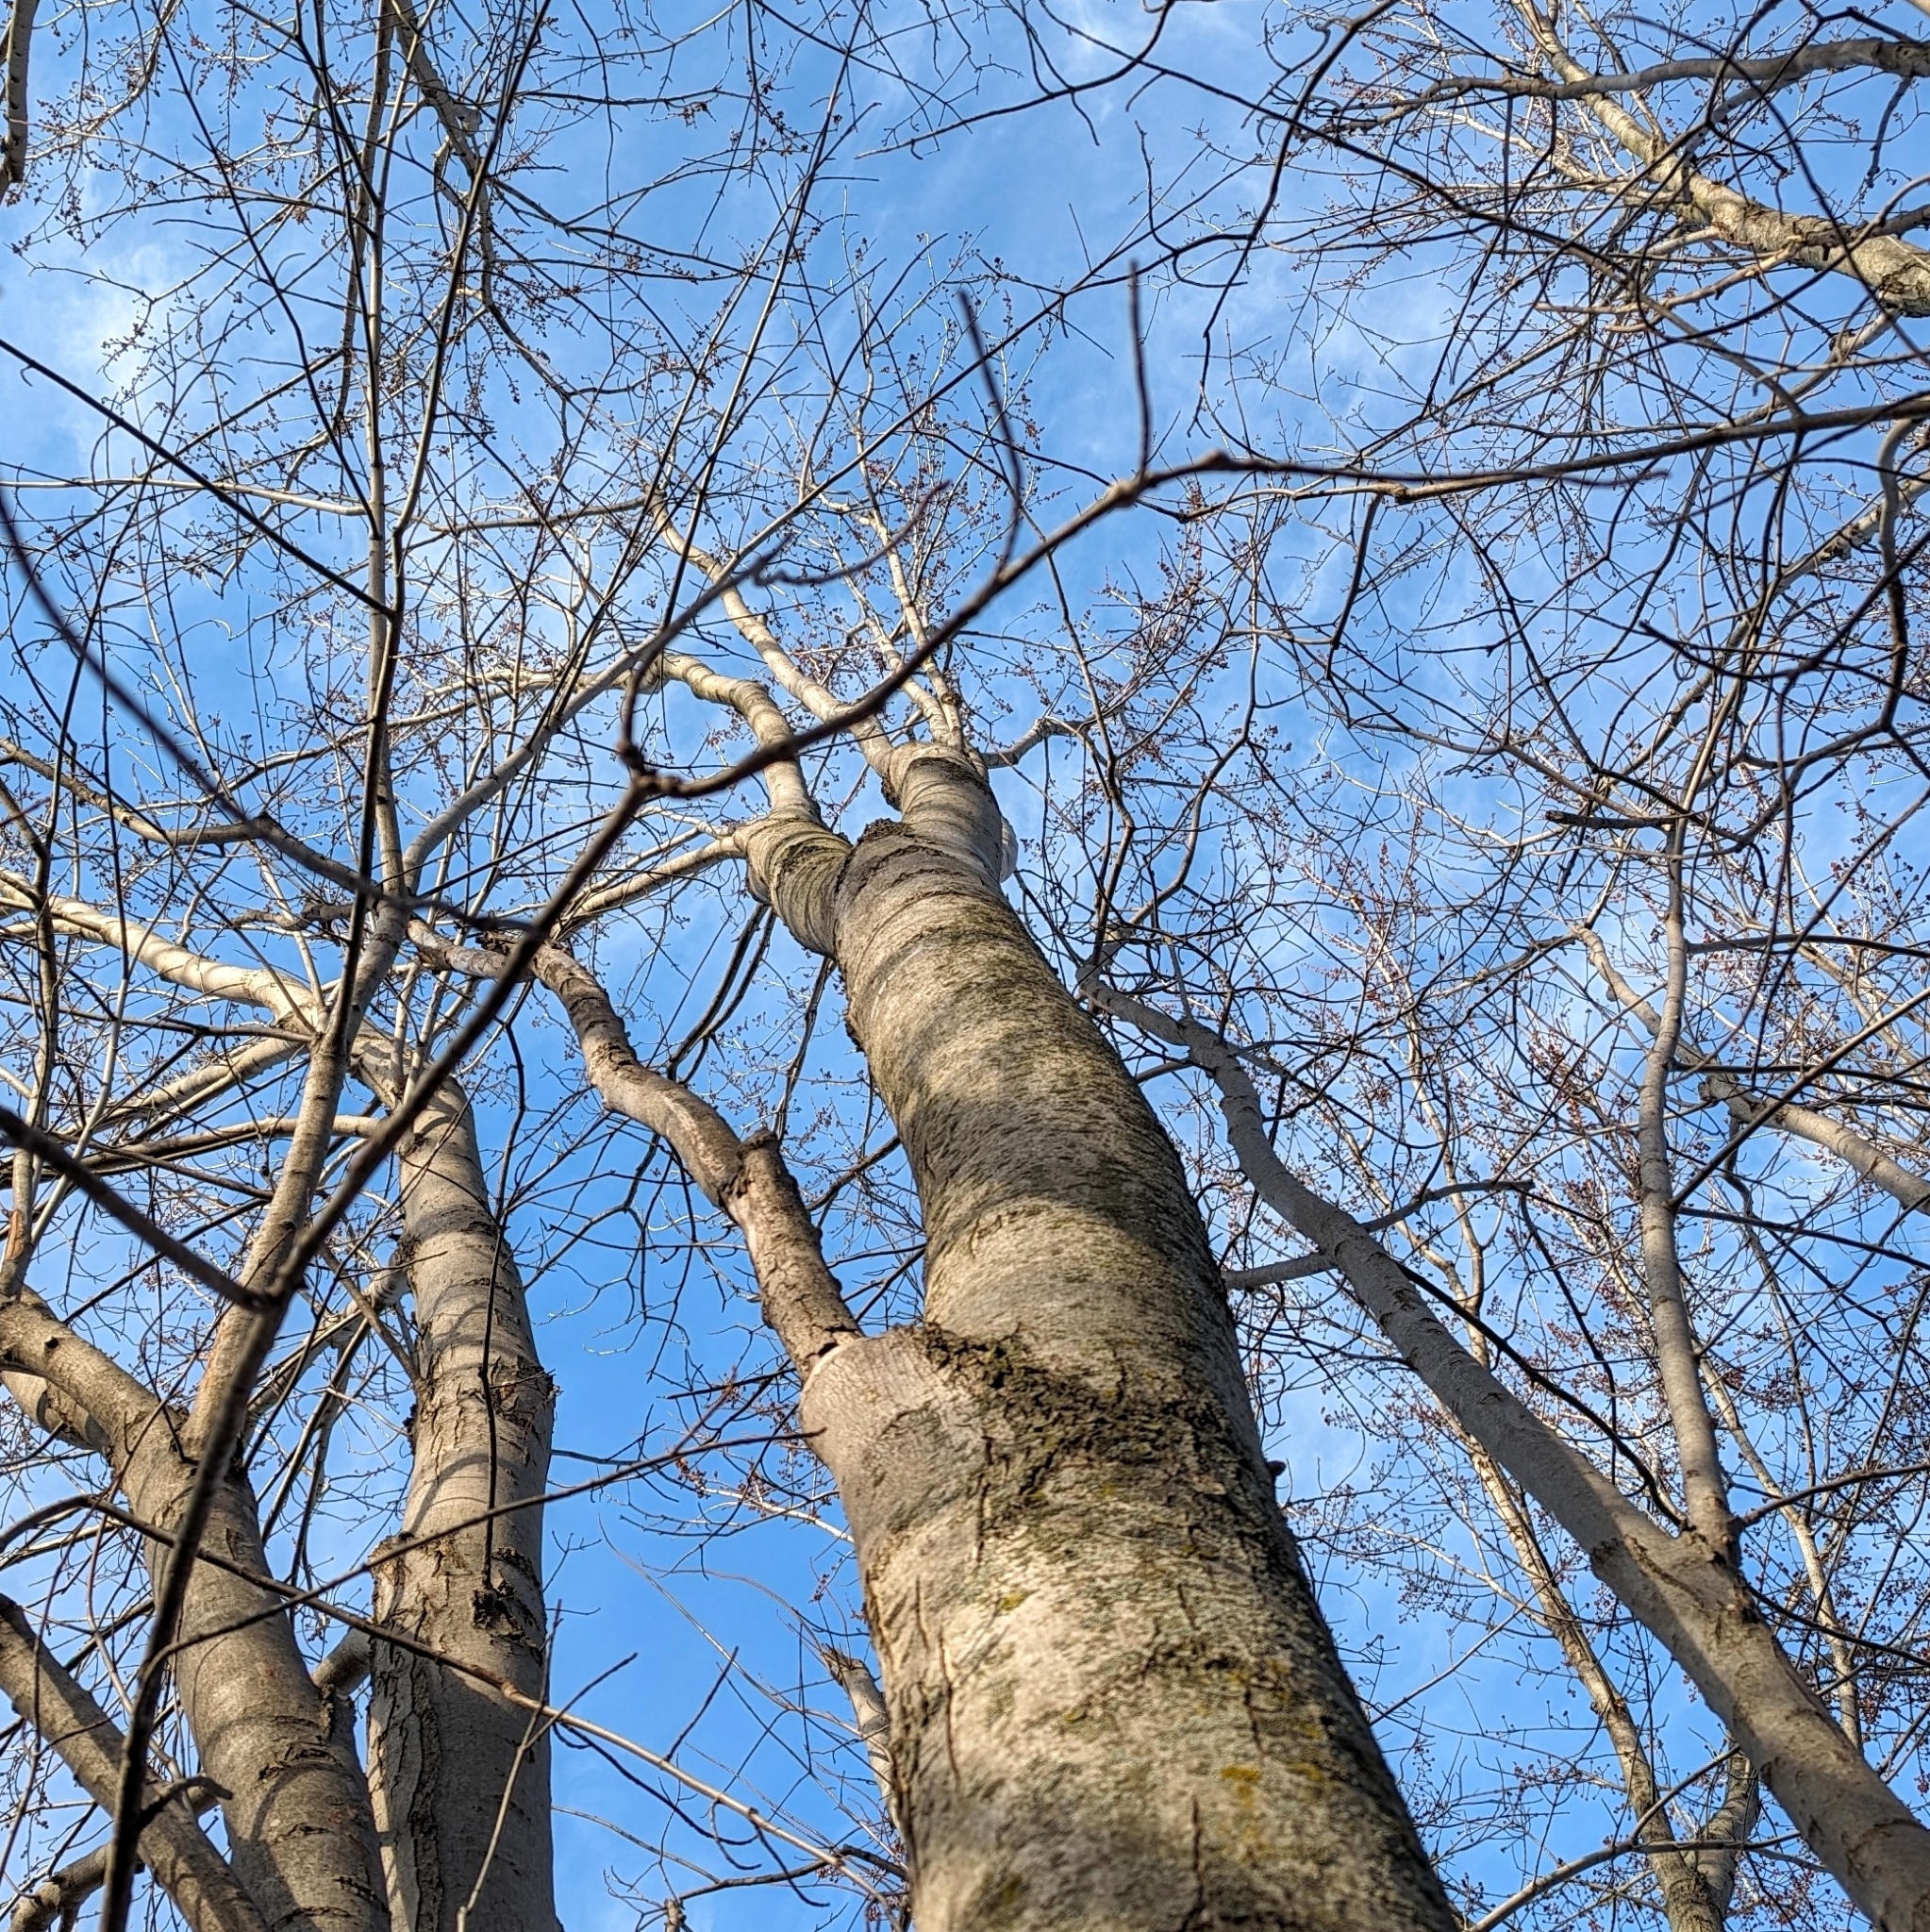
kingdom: Plantae
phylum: Tracheophyta
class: Magnoliopsida
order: Sapindales
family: Sapindaceae
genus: Acer
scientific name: Acer saccharinum
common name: Silver maple
